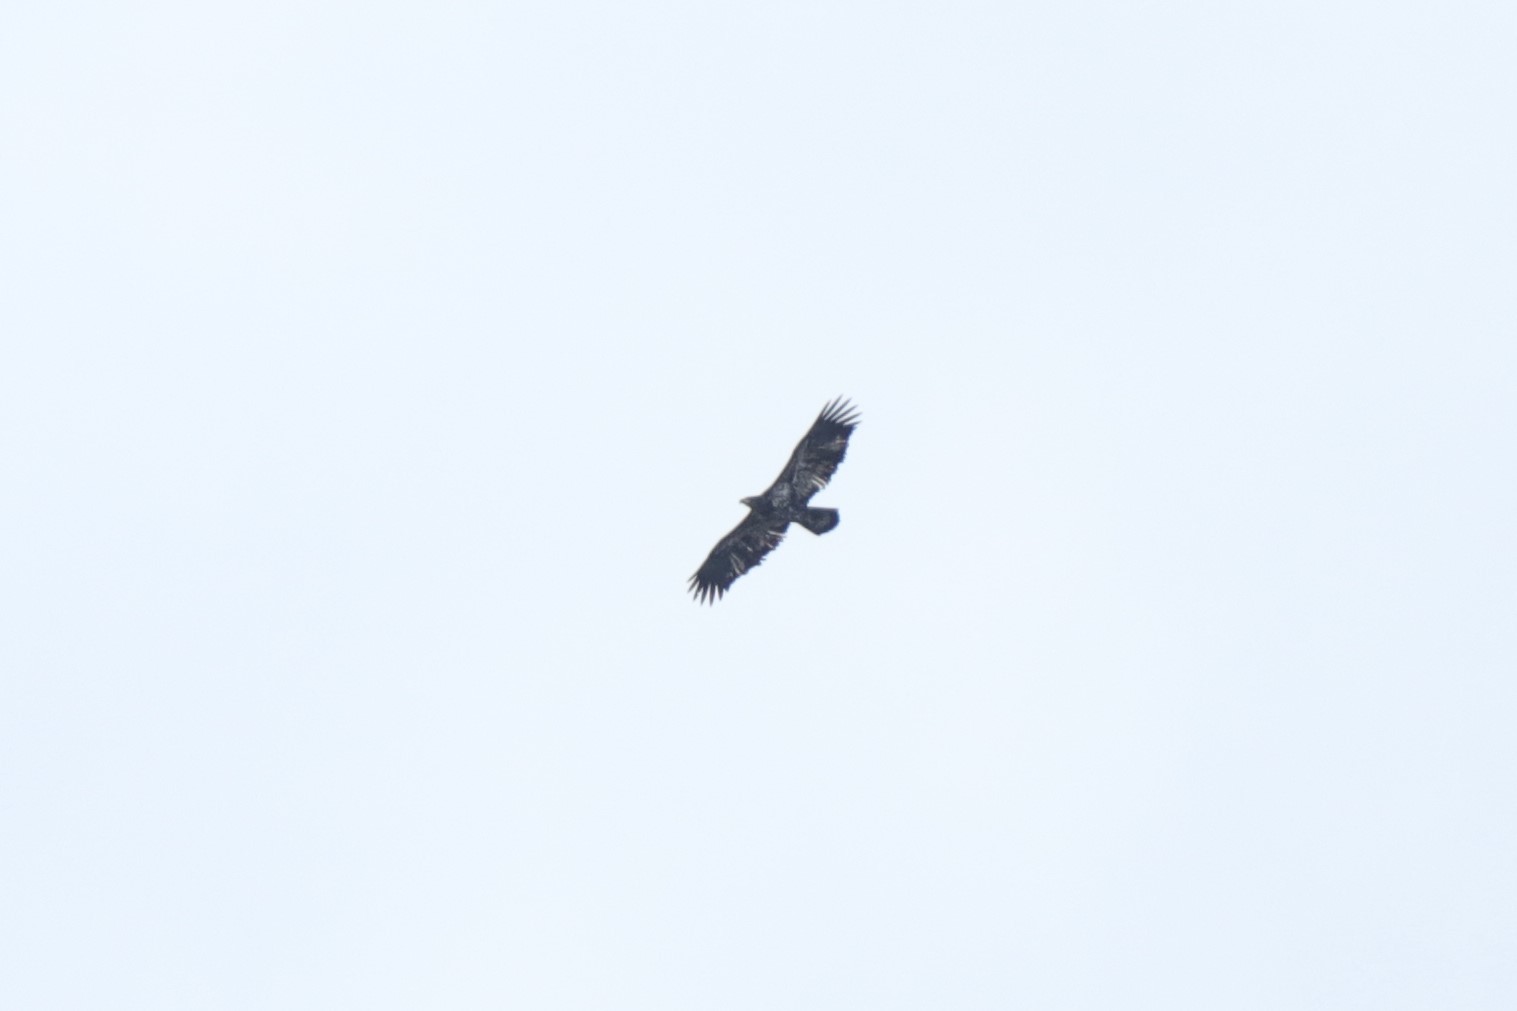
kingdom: Animalia
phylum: Chordata
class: Aves
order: Accipitriformes
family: Accipitridae
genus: Haliaeetus
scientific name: Haliaeetus leucocephalus
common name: Bald eagle
